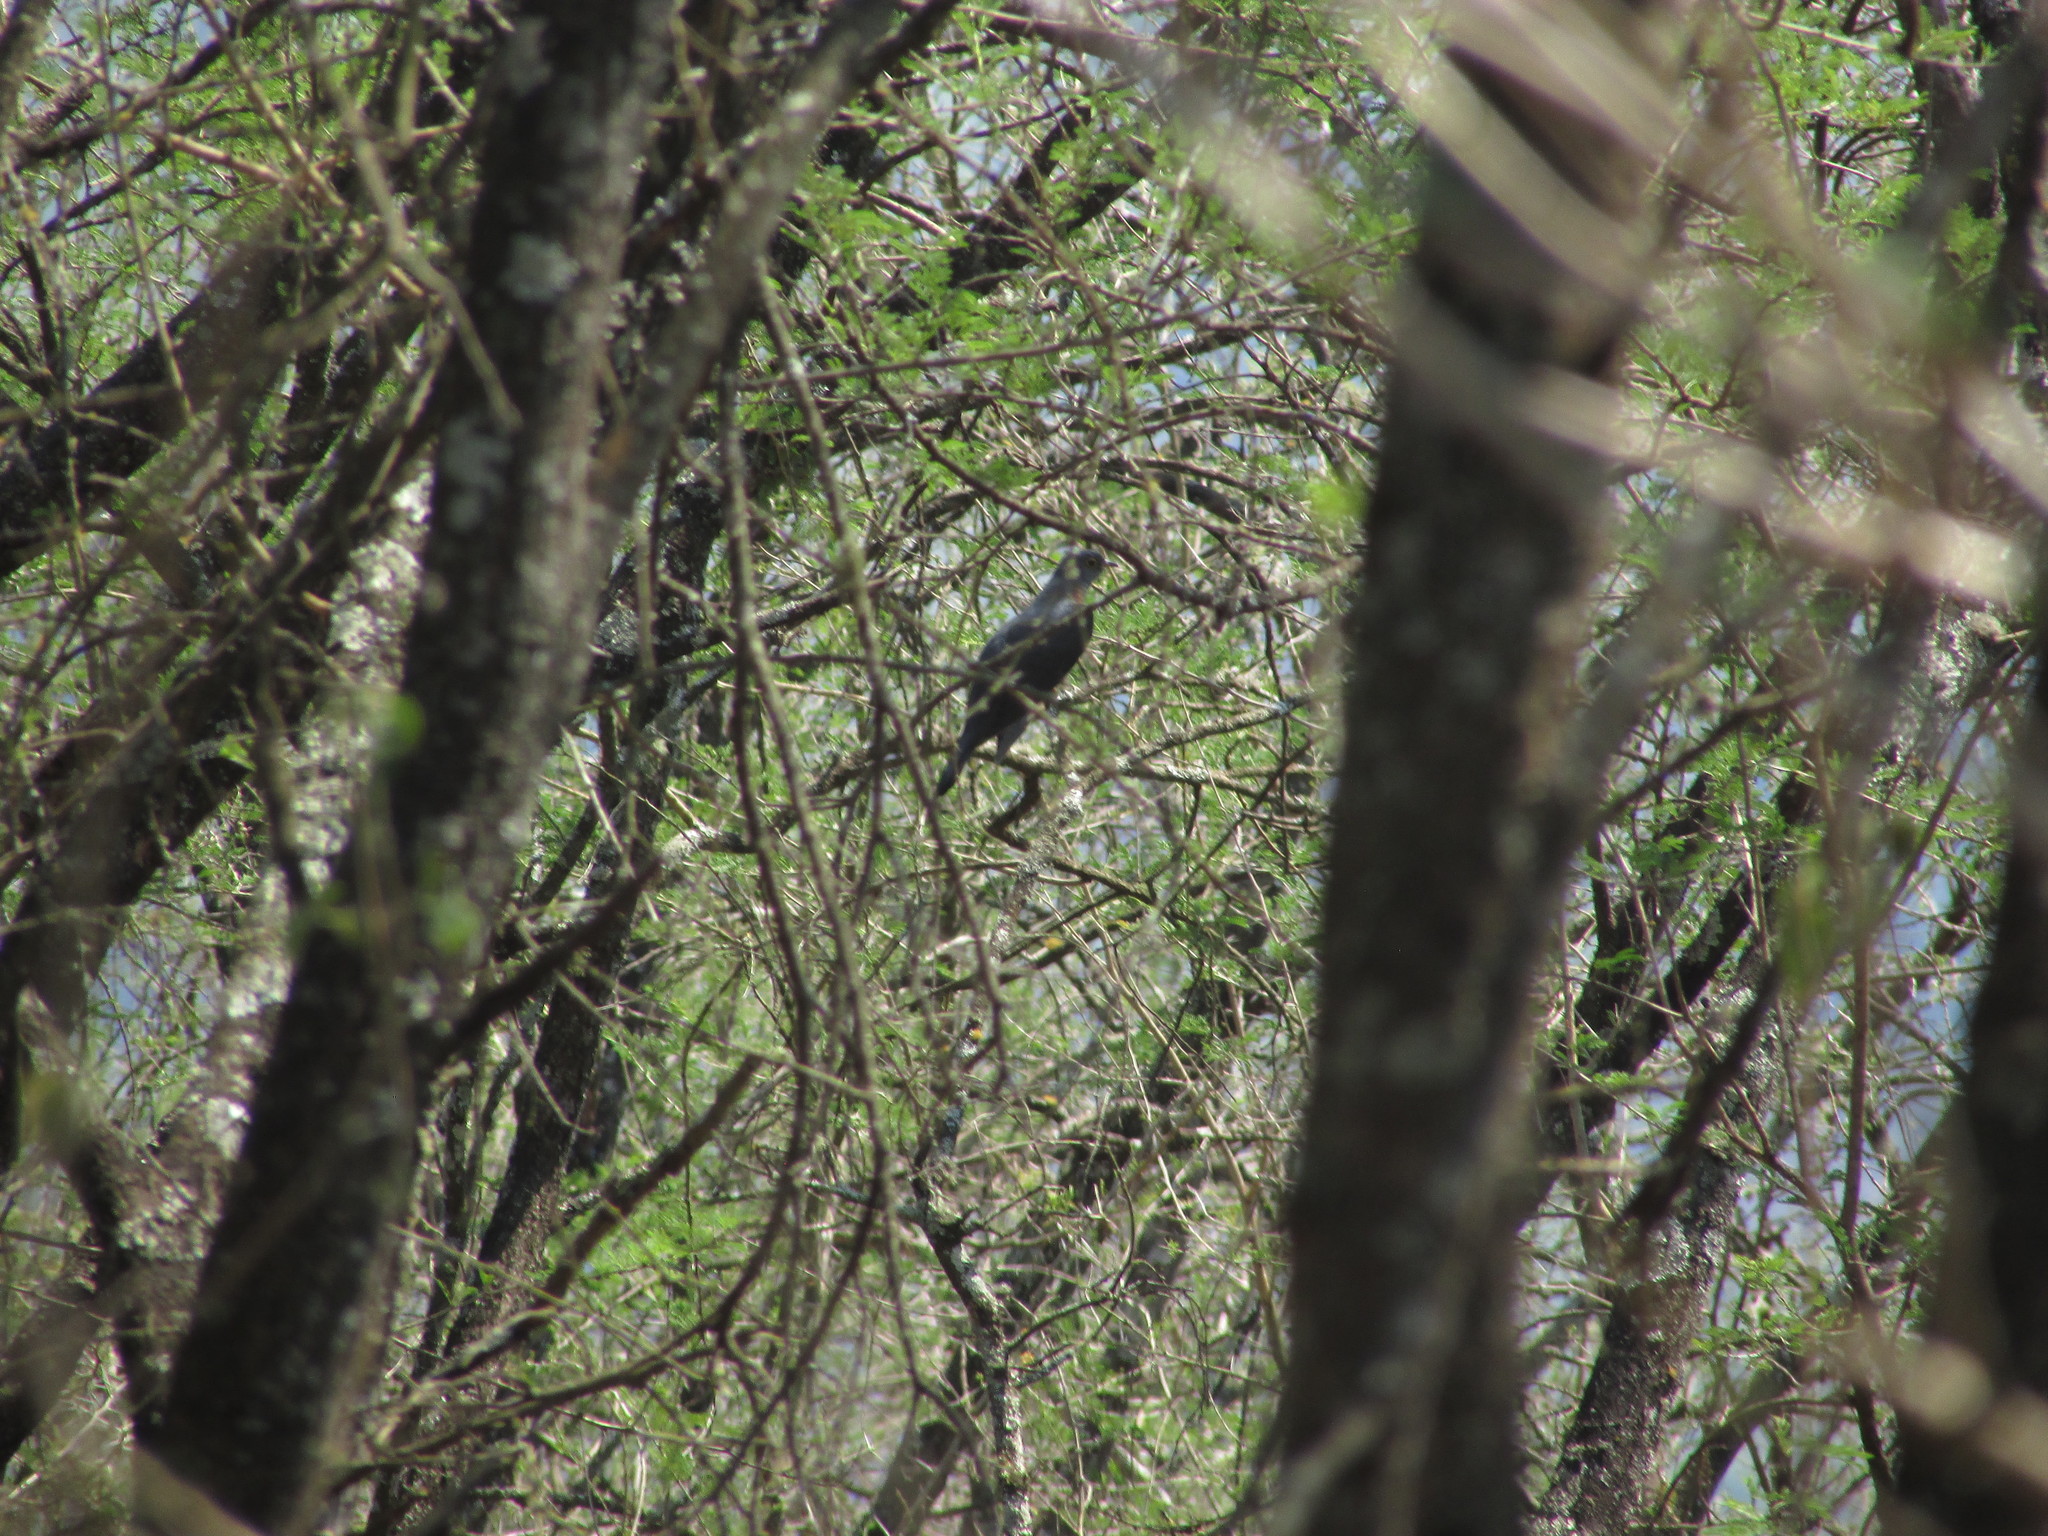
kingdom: Animalia
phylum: Chordata
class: Aves
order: Cuculiformes
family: Cuculidae
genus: Cuculus
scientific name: Cuculus solitarius
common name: Red-chested cuckoo
